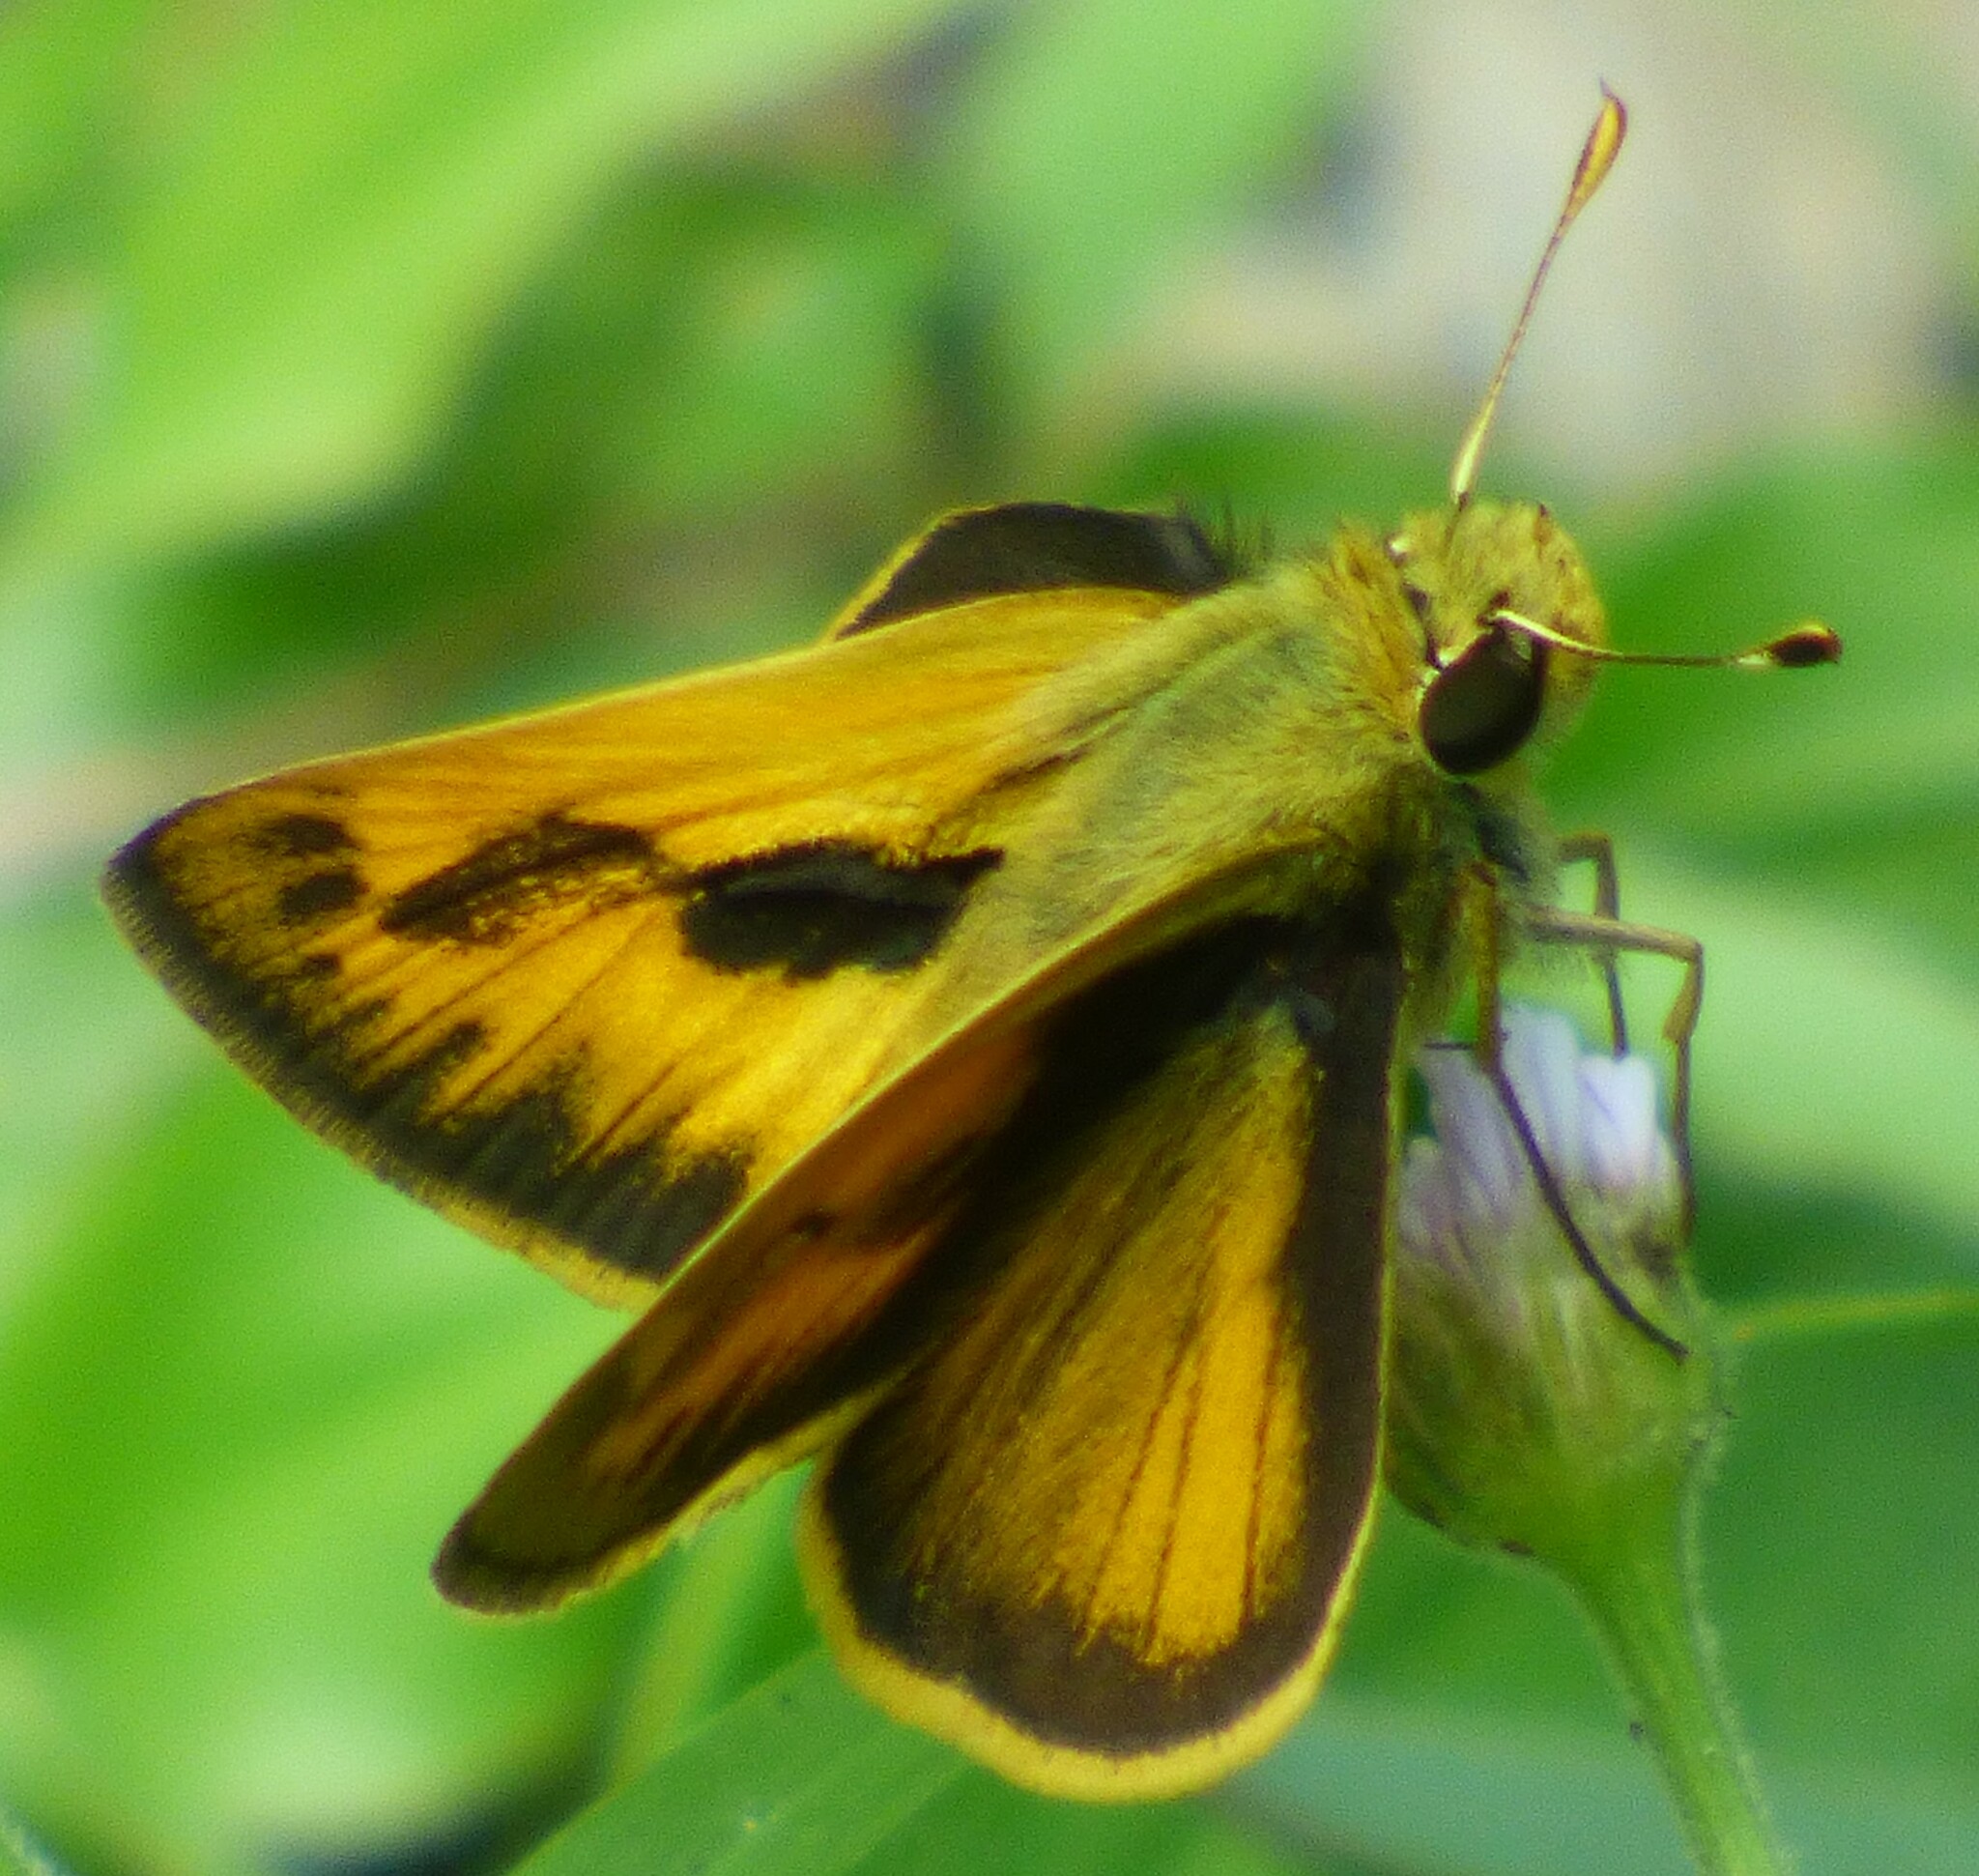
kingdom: Animalia
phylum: Arthropoda
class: Insecta
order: Lepidoptera
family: Hesperiidae
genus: Polites
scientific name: Polites vibex
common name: Whirlabout
